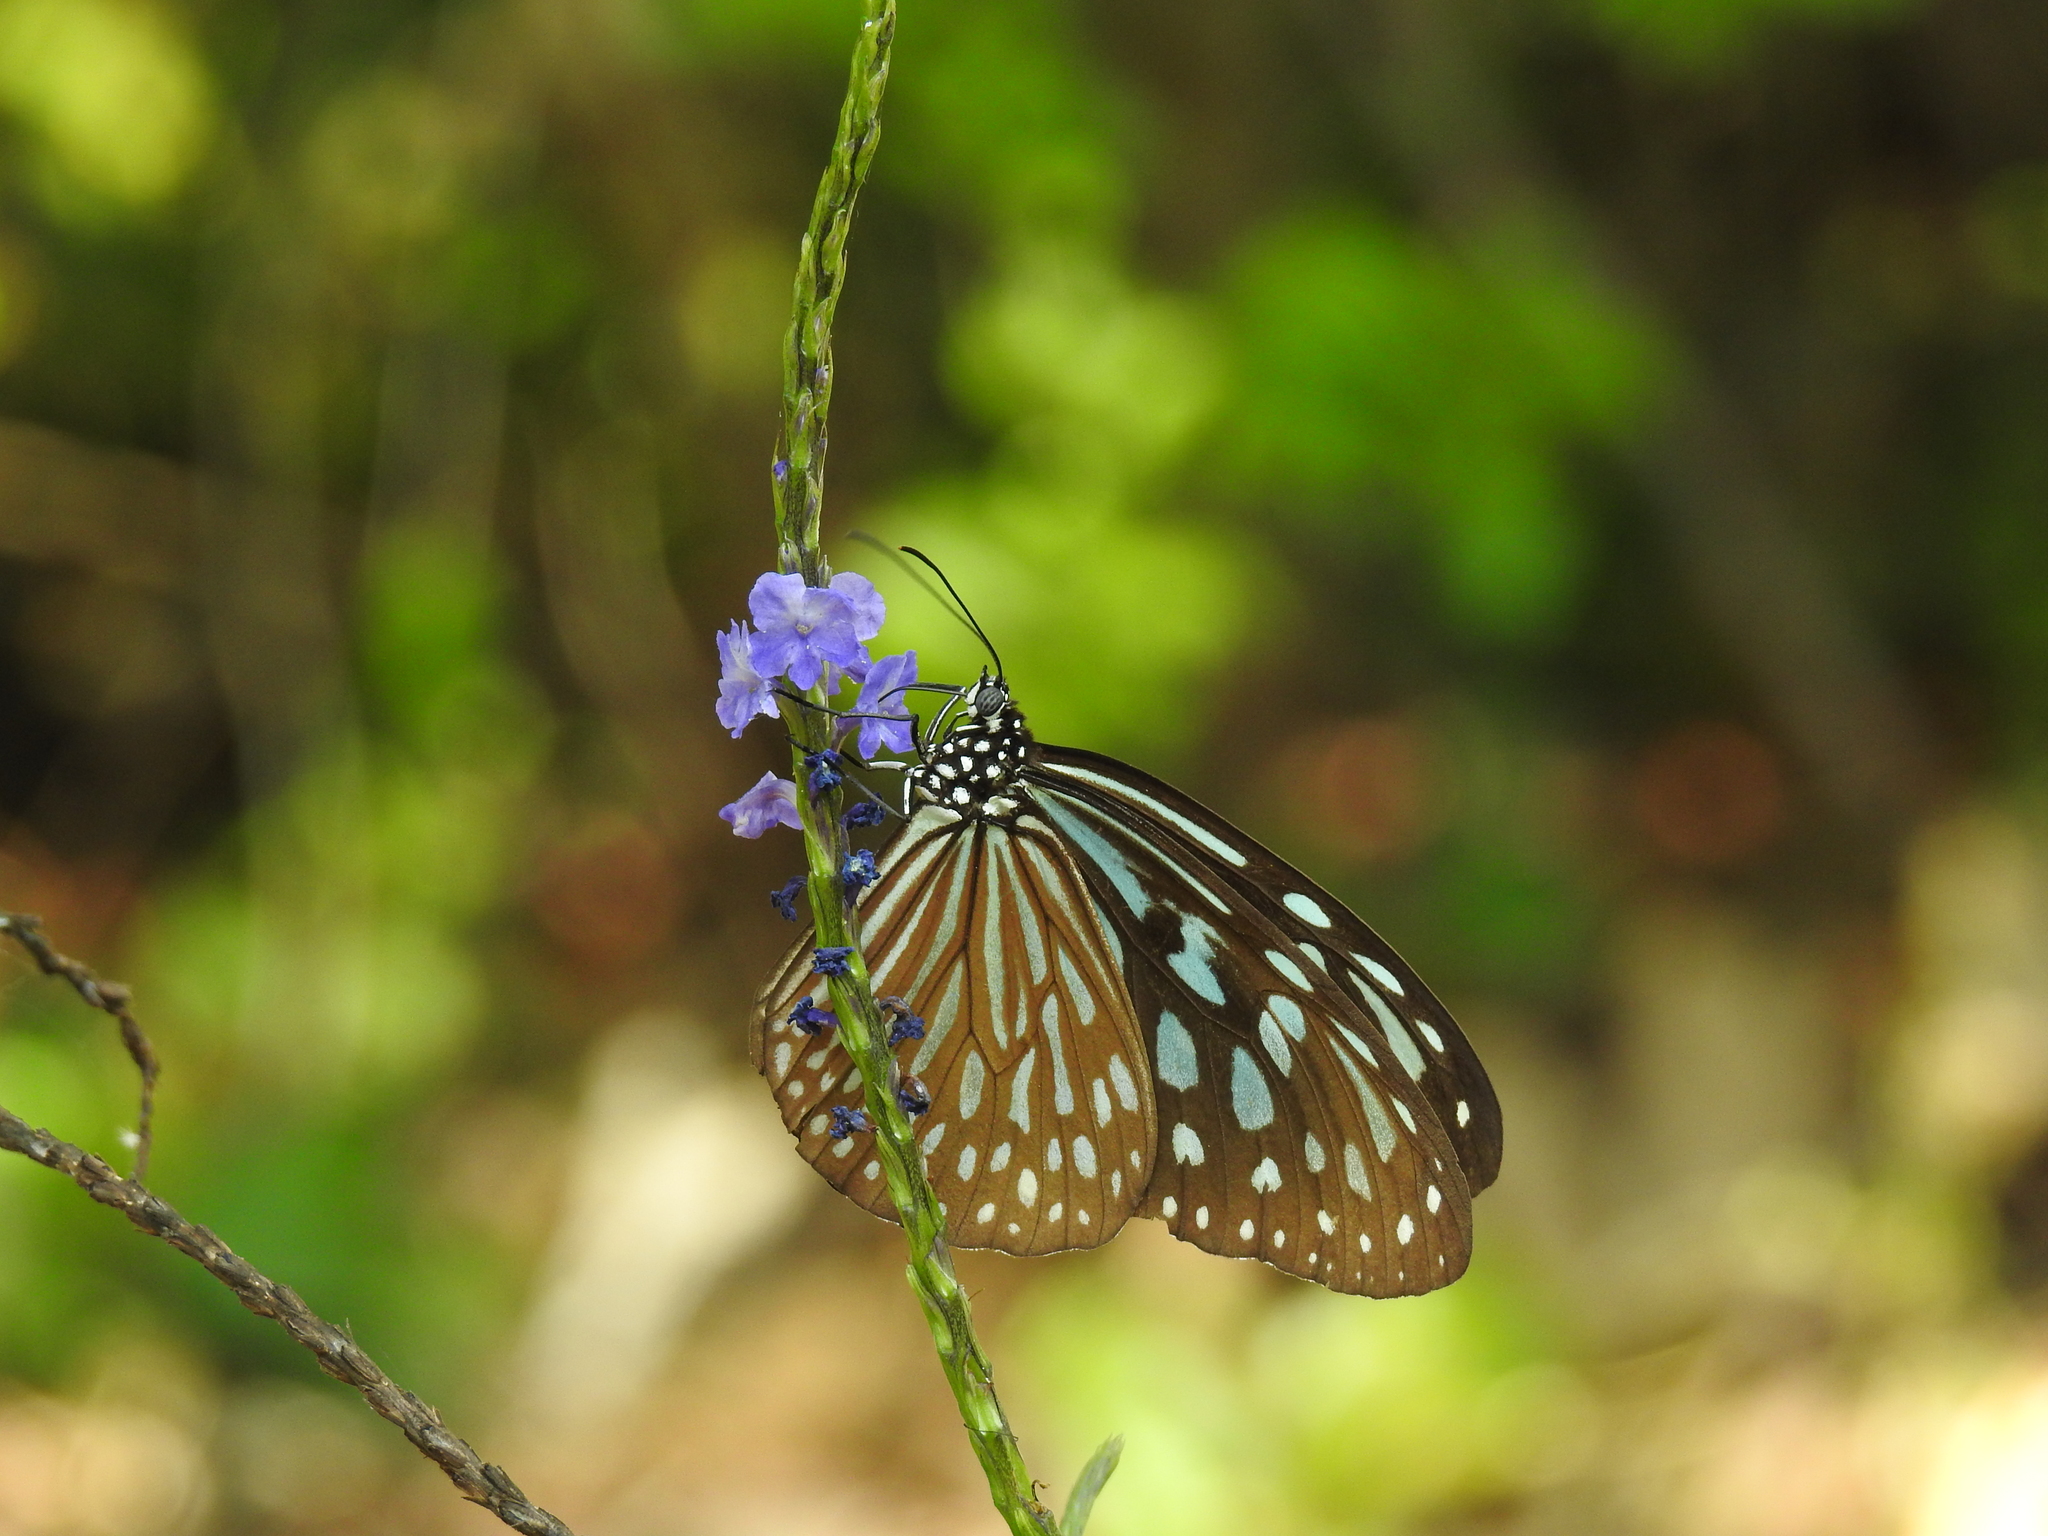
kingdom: Animalia
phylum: Arthropoda
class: Insecta
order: Lepidoptera
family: Nymphalidae
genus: Ideopsis
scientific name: Ideopsis similis
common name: Ceylon blue glassy tiger
